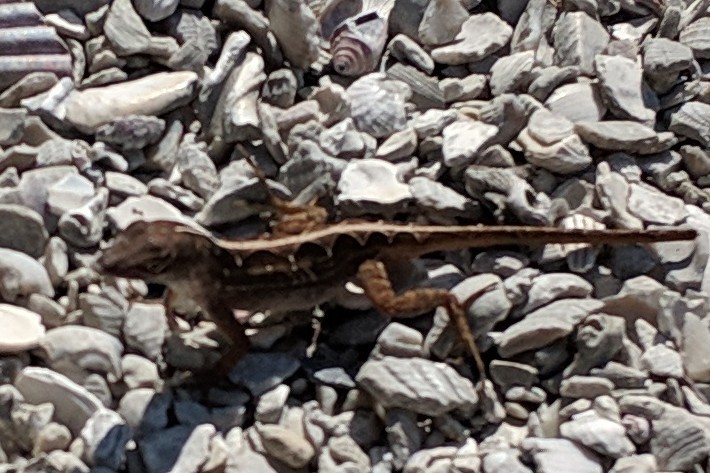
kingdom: Animalia
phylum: Chordata
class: Squamata
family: Dactyloidae
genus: Anolis
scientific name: Anolis sagrei
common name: Brown anole
